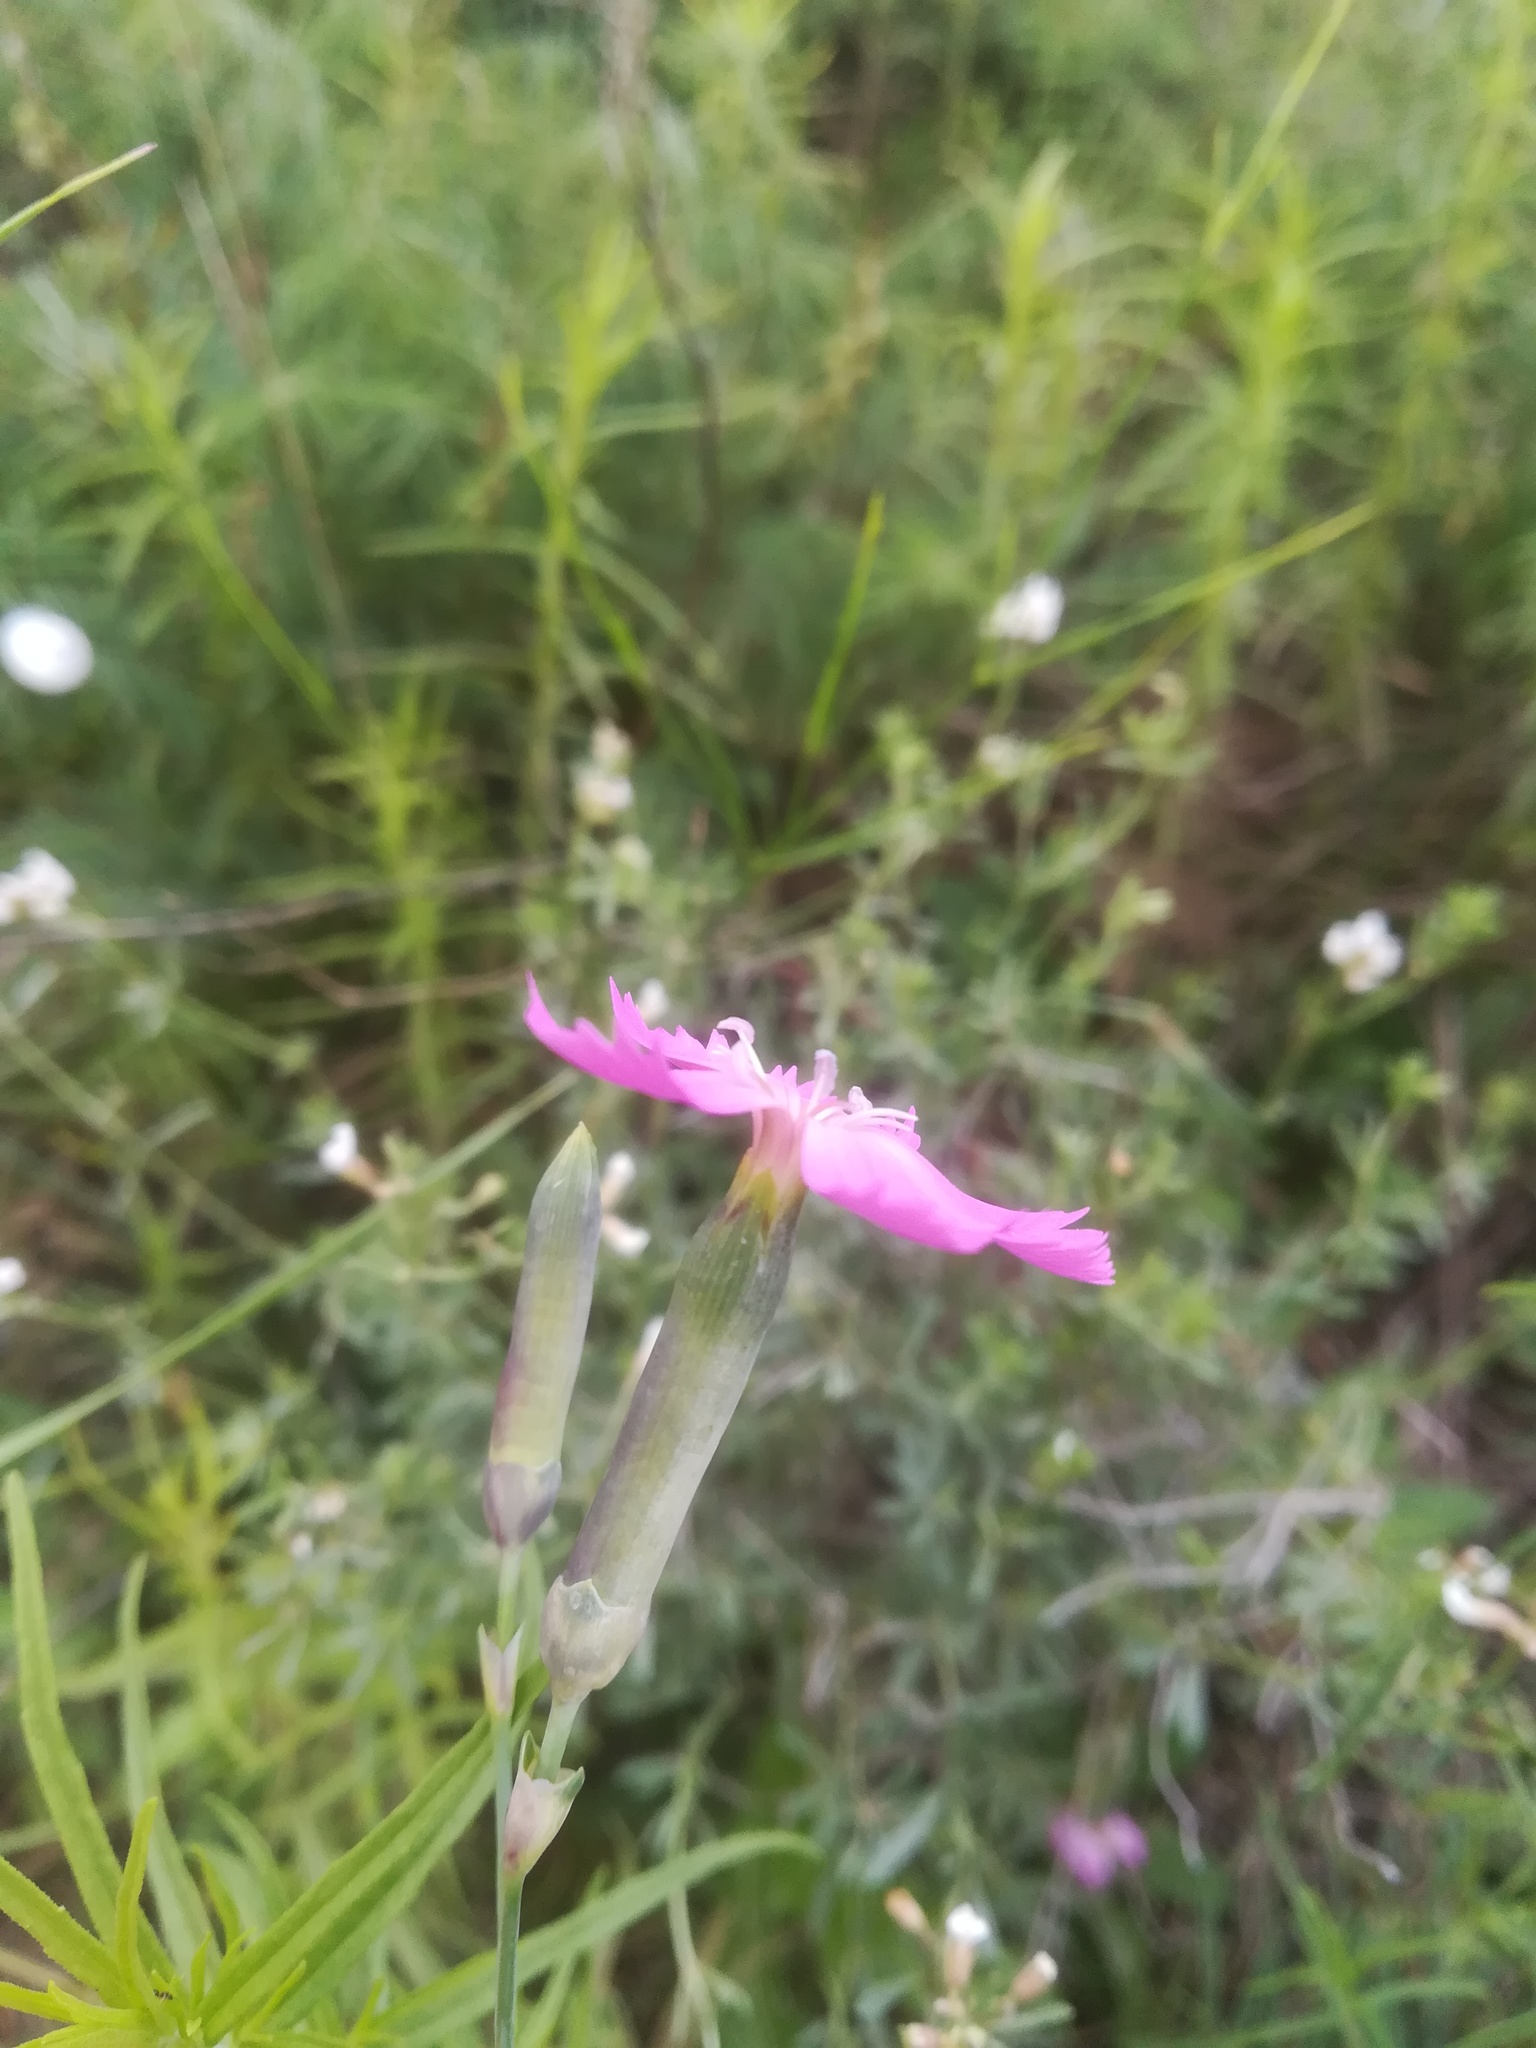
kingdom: Plantae
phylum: Tracheophyta
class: Magnoliopsida
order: Caryophyllales
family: Caryophyllaceae
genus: Dianthus
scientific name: Dianthus sylvestris
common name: Wood pink
